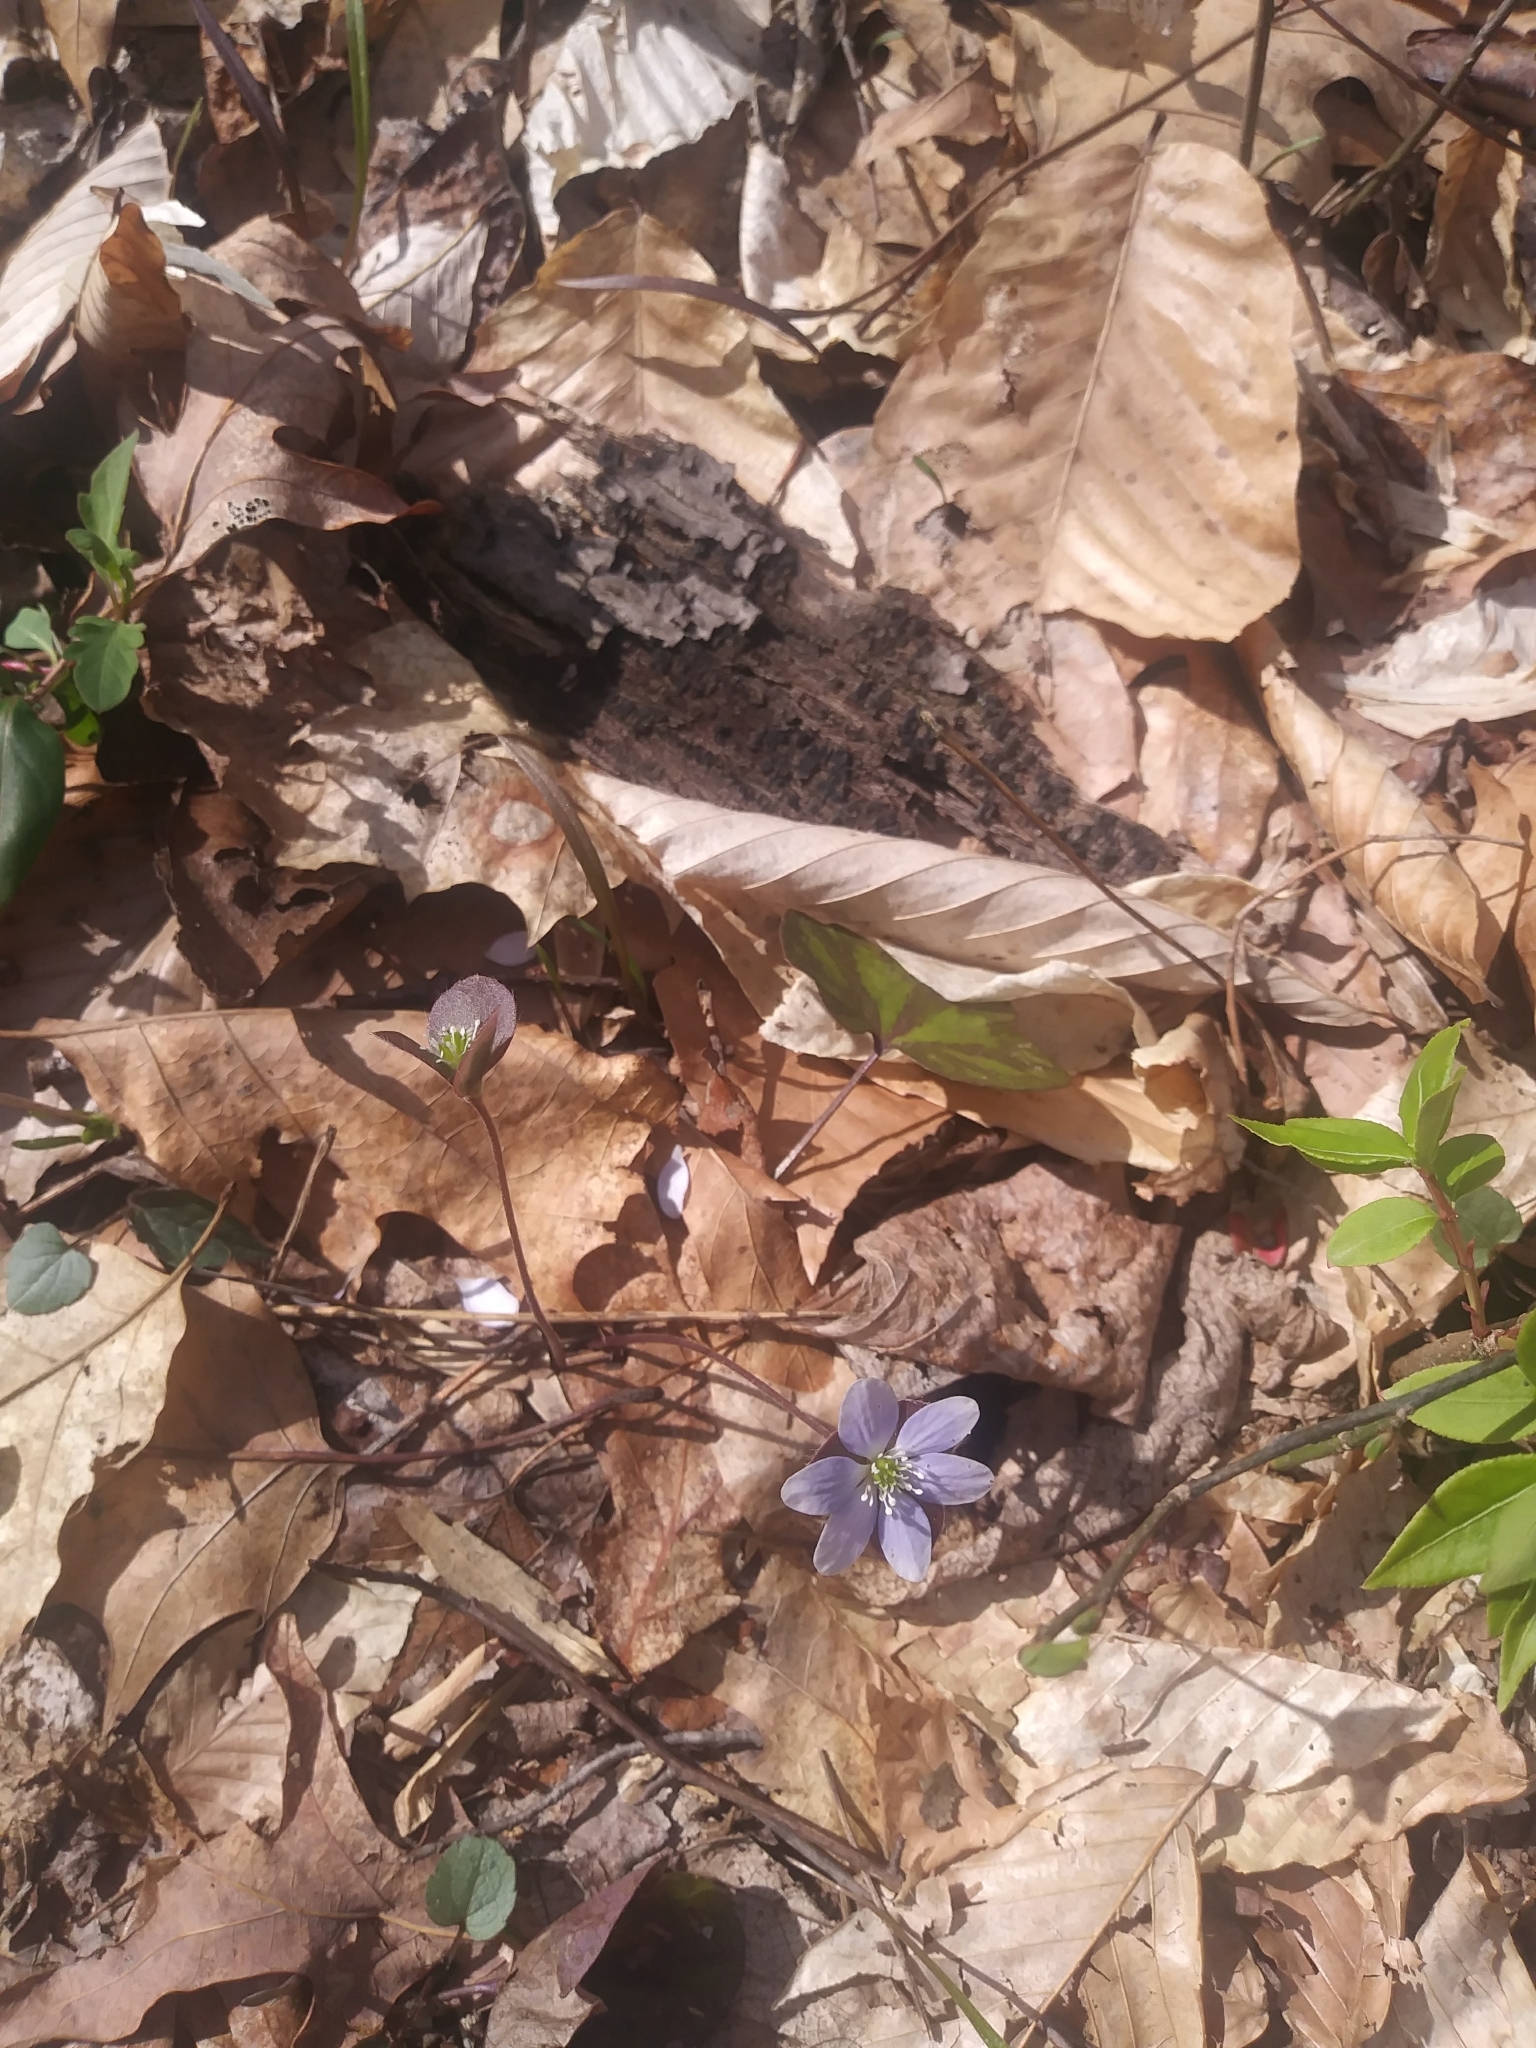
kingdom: Plantae
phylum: Tracheophyta
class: Magnoliopsida
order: Ranunculales
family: Ranunculaceae
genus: Hepatica
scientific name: Hepatica americana
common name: American hepatica
